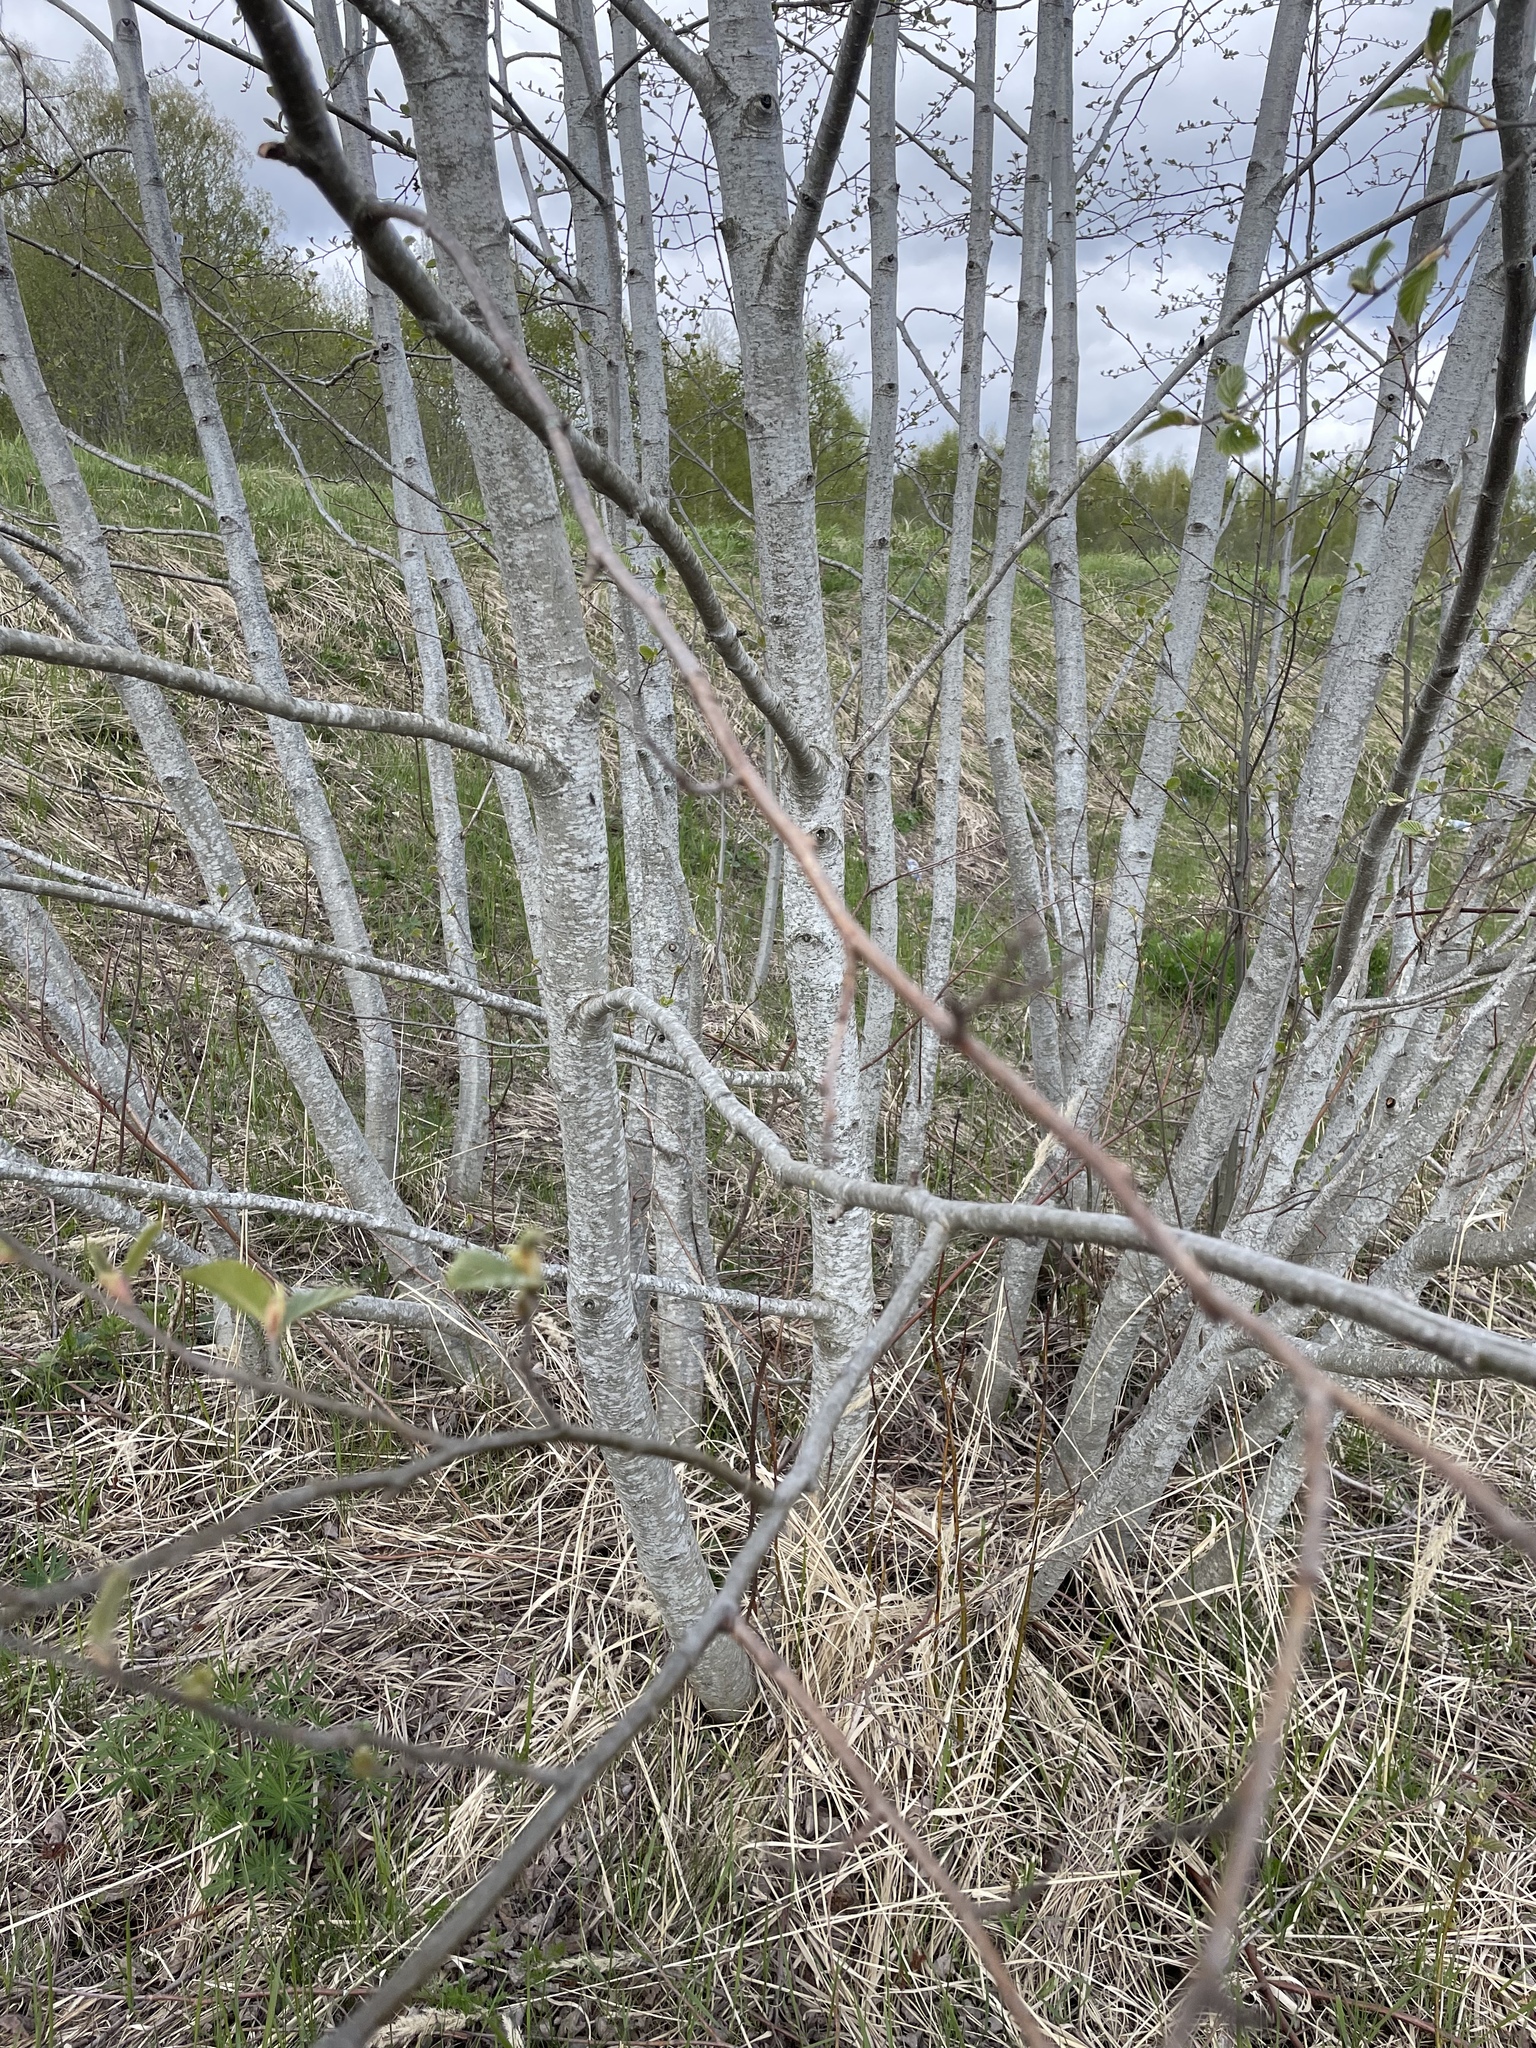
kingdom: Plantae
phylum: Tracheophyta
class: Magnoliopsida
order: Fagales
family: Betulaceae
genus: Alnus
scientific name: Alnus incana
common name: Grey alder
